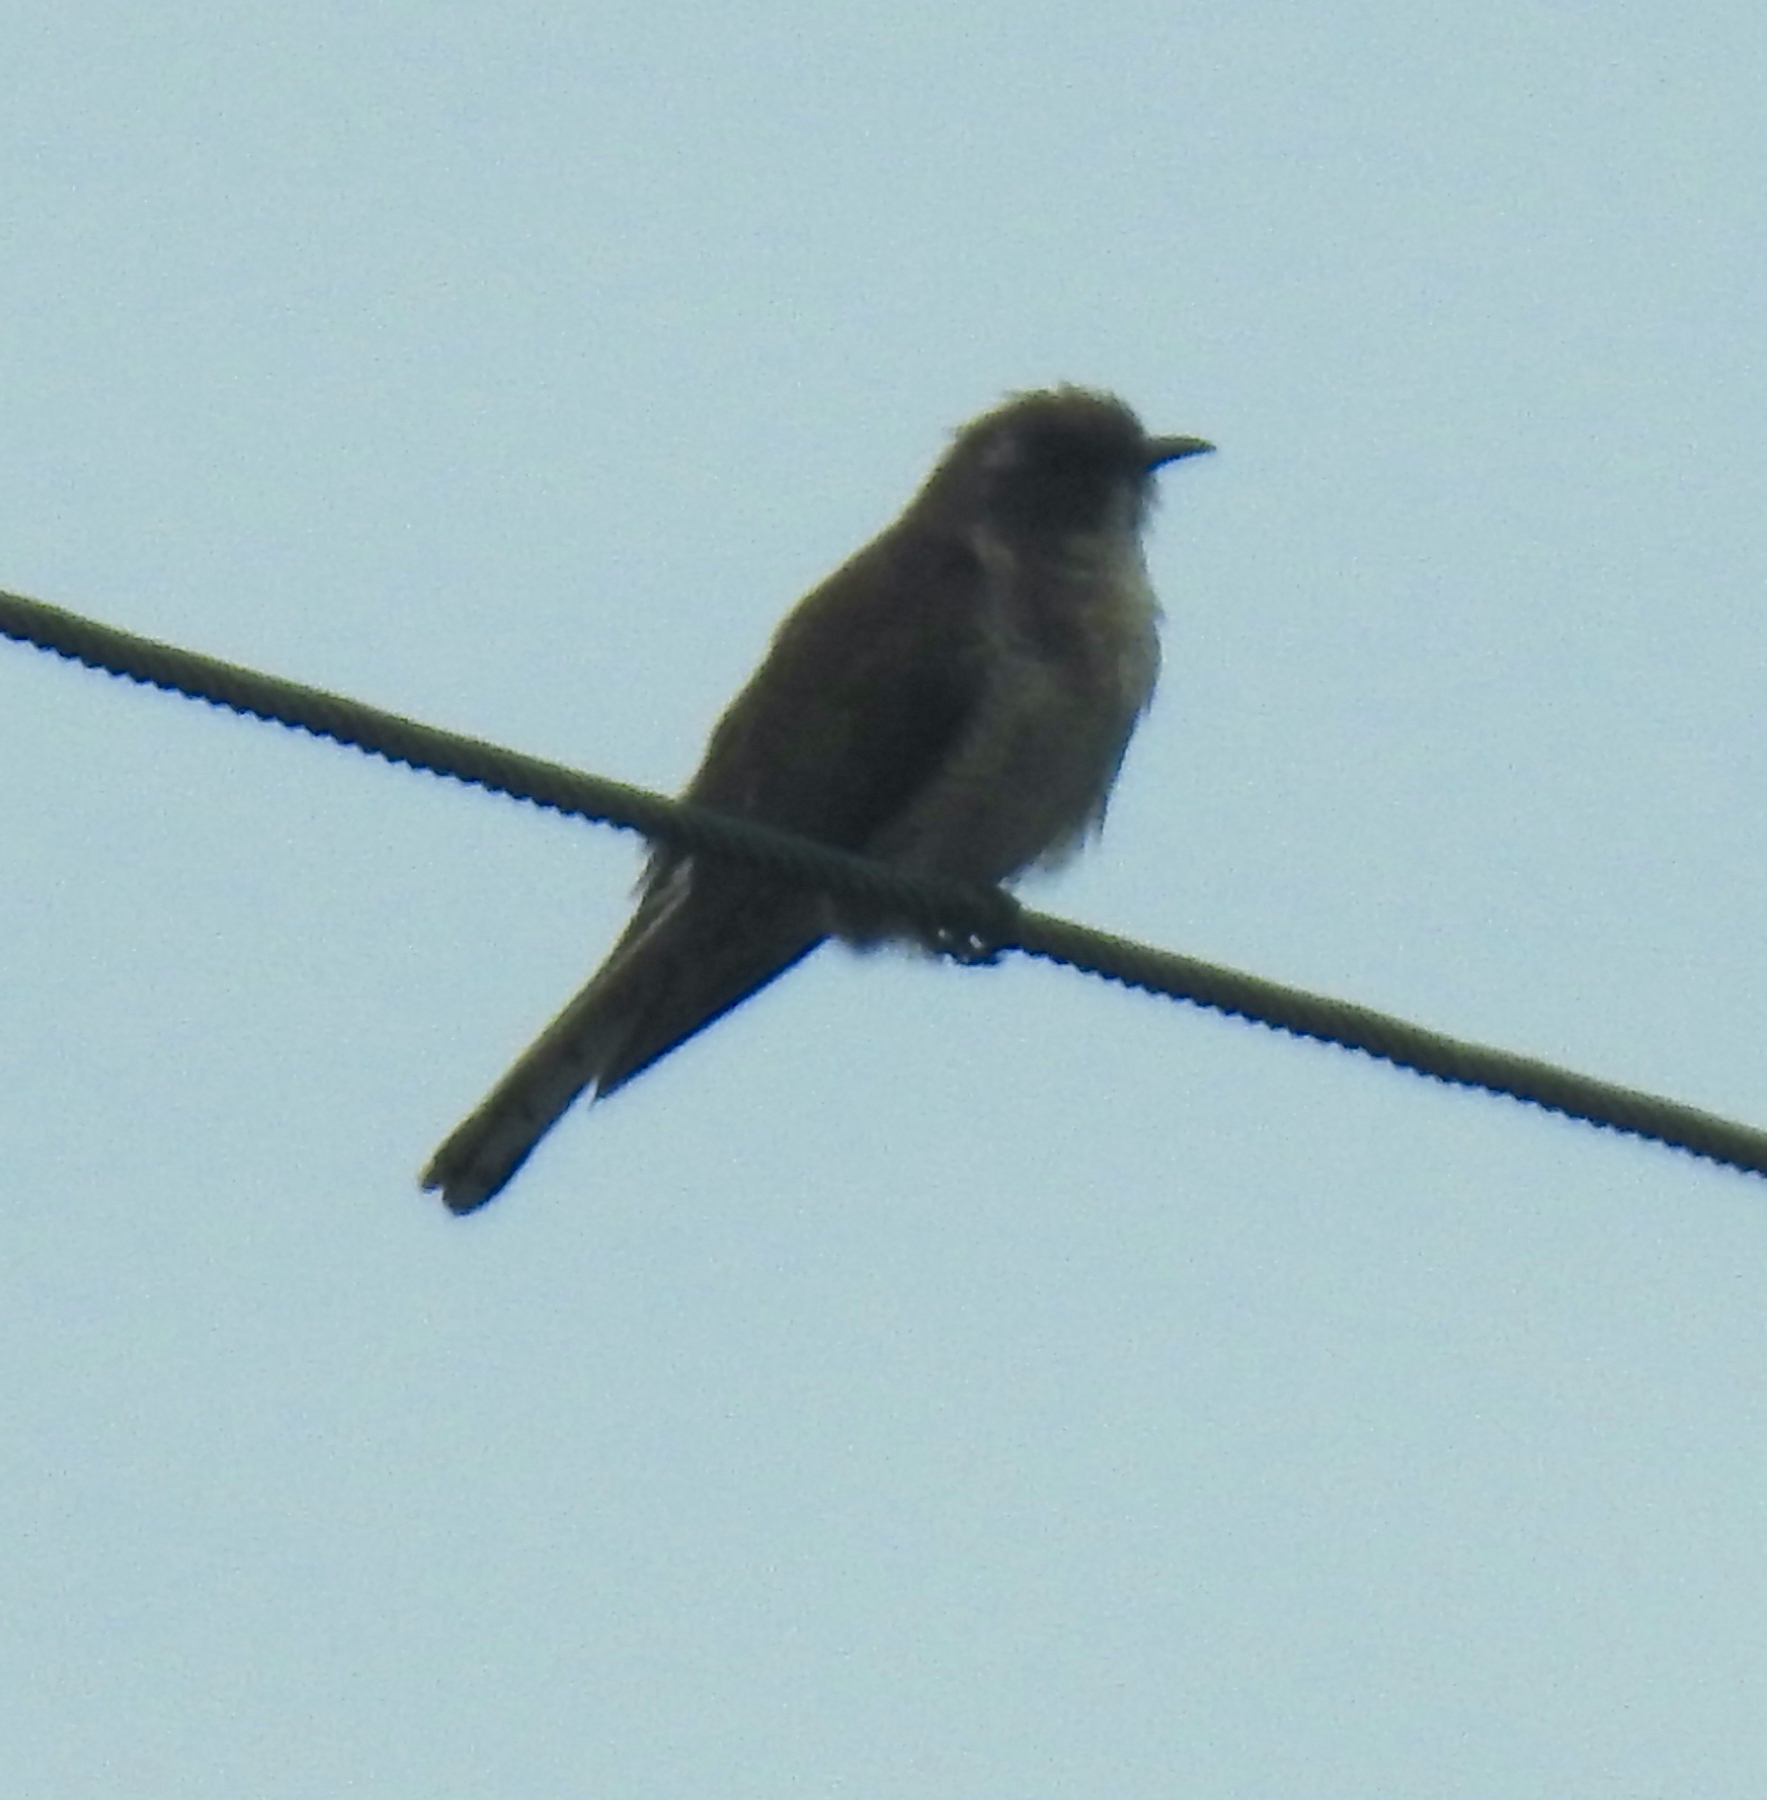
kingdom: Animalia
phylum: Chordata
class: Aves
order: Cuculiformes
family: Cuculidae
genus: Chrysococcyx
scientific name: Chrysococcyx klaas
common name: Klaas's cuckoo
